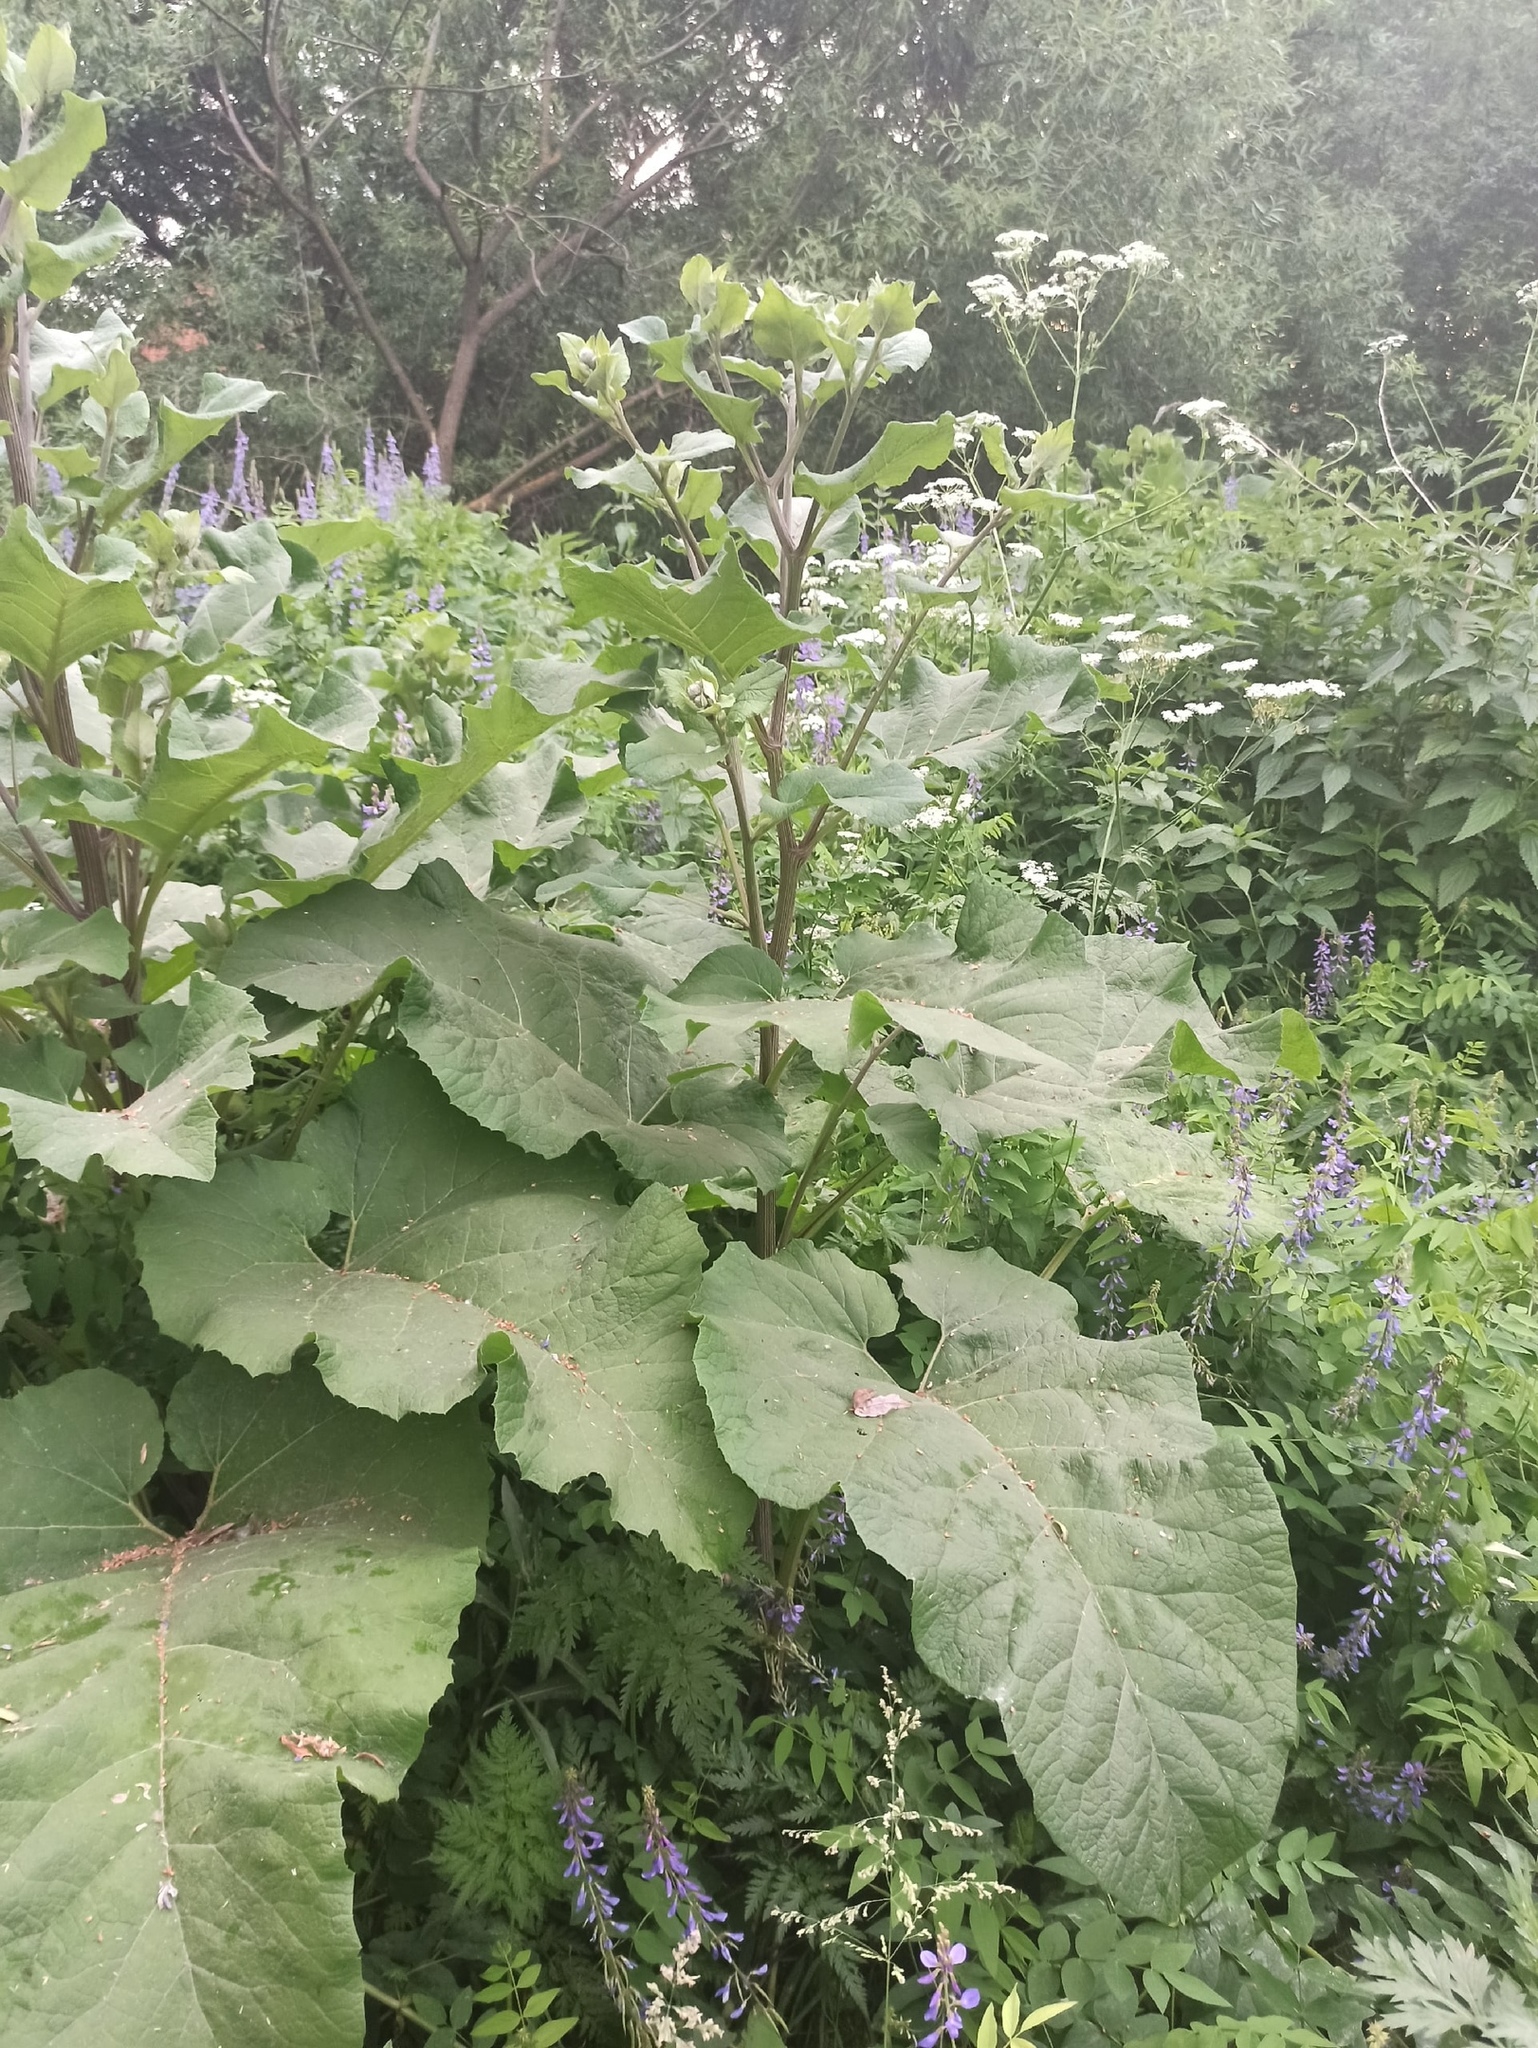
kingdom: Plantae
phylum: Tracheophyta
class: Magnoliopsida
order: Asterales
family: Asteraceae
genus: Arctium
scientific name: Arctium tomentosum
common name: Woolly burdock
